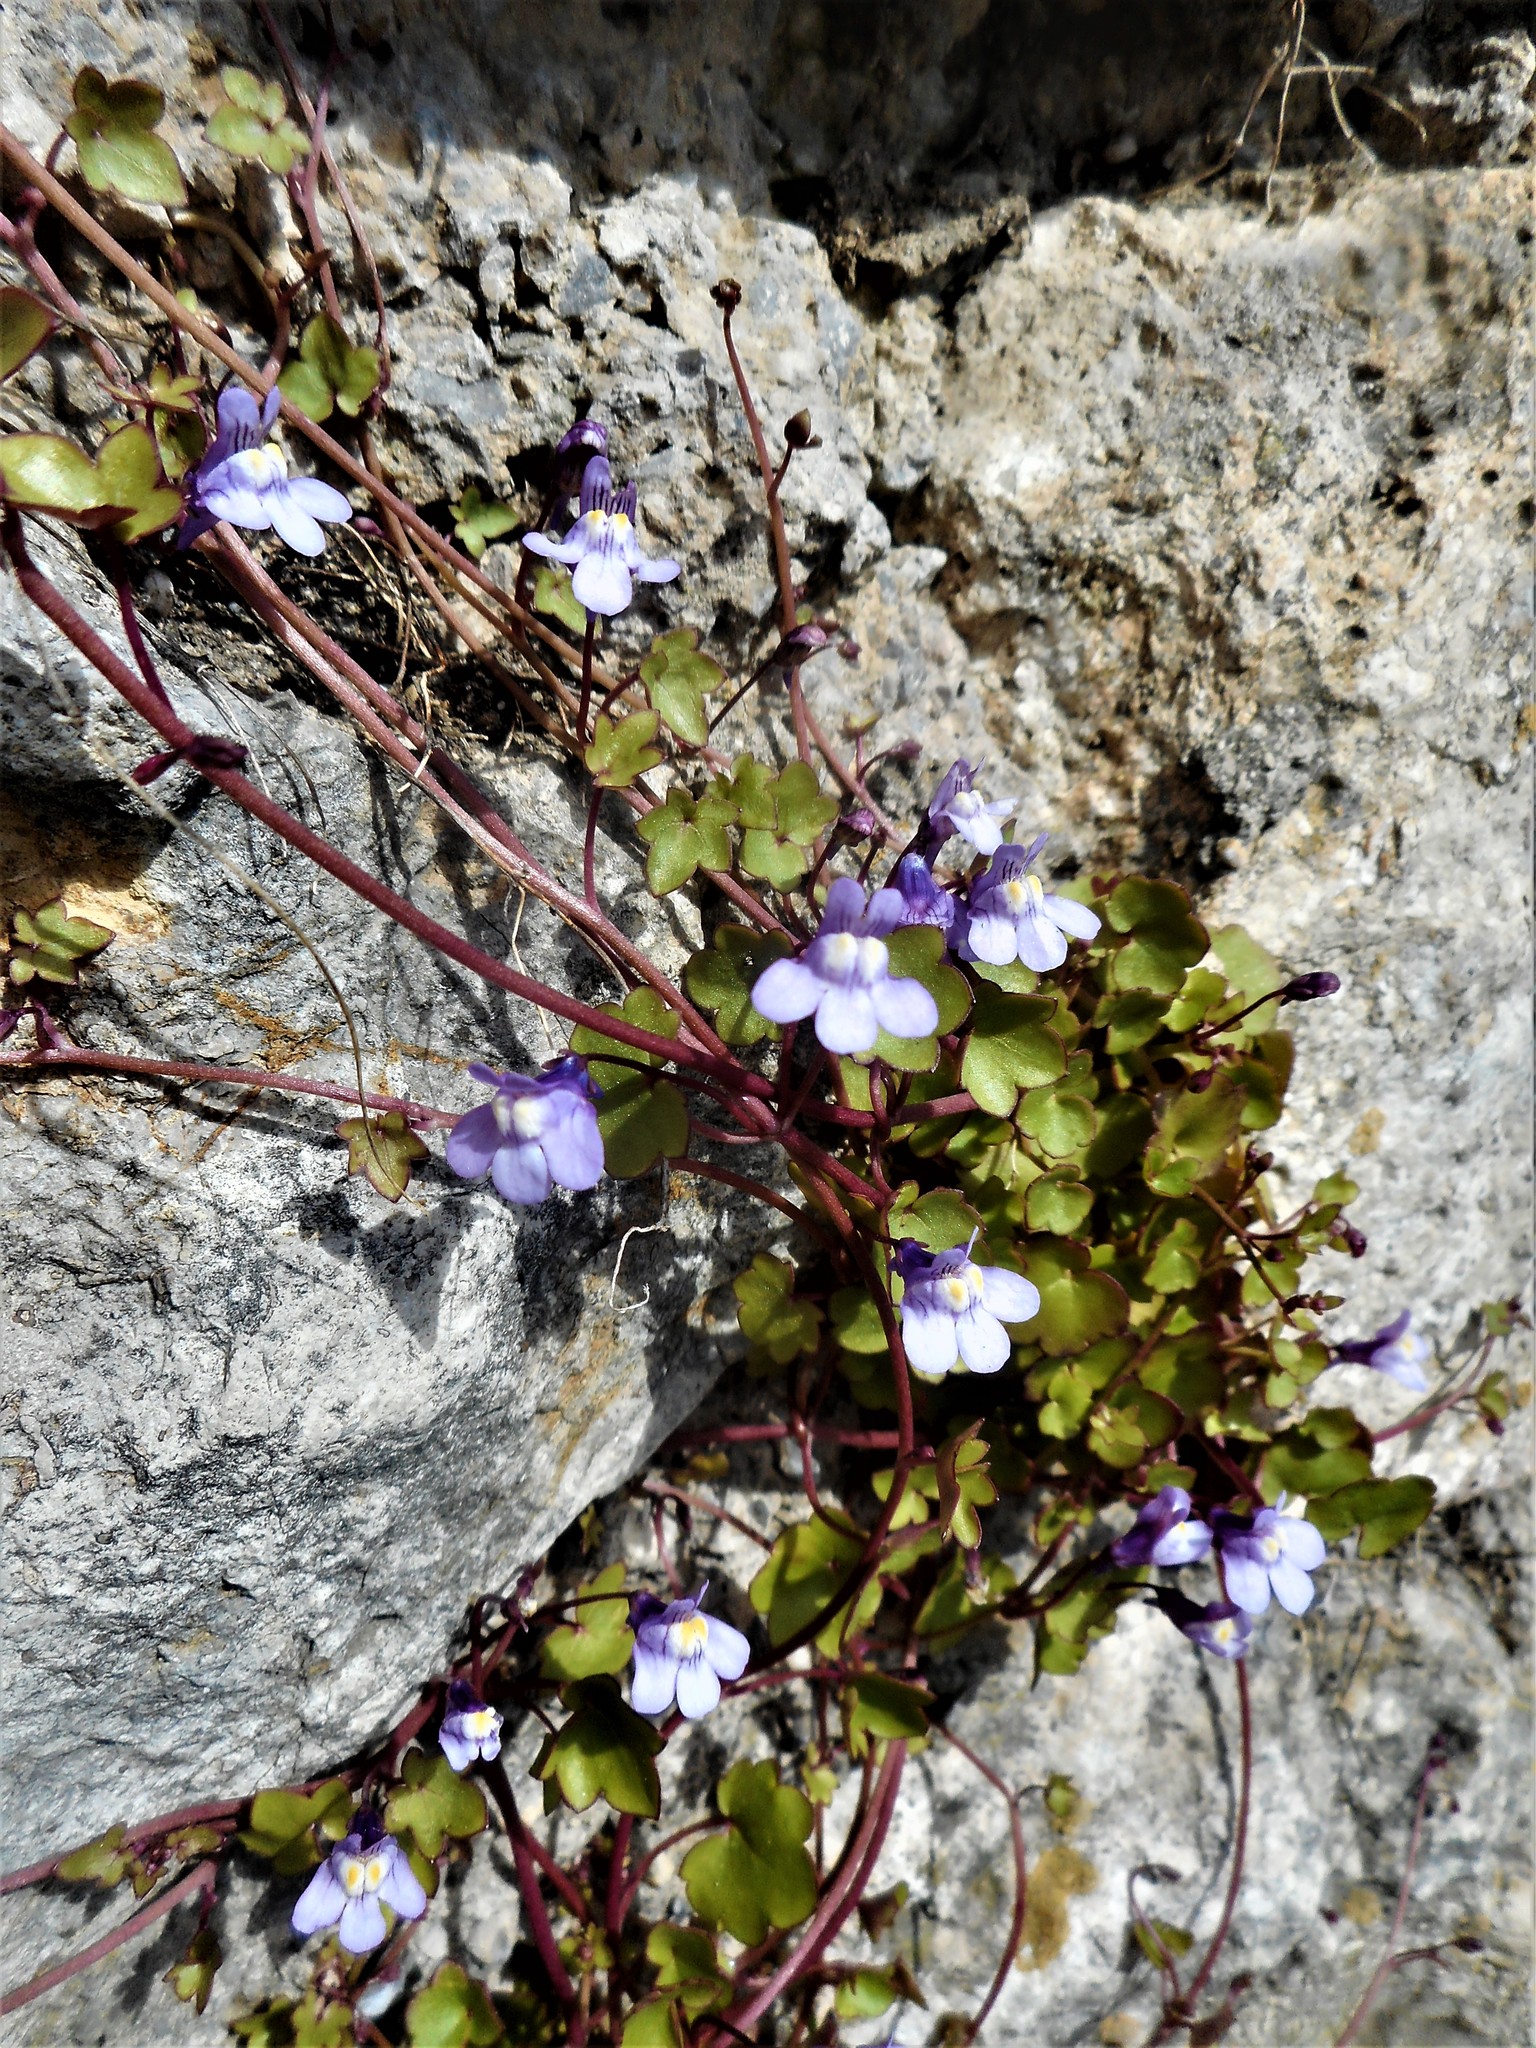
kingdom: Plantae
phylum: Tracheophyta
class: Magnoliopsida
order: Lamiales
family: Plantaginaceae
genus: Cymbalaria
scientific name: Cymbalaria muralis
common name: Ivy-leaved toadflax
